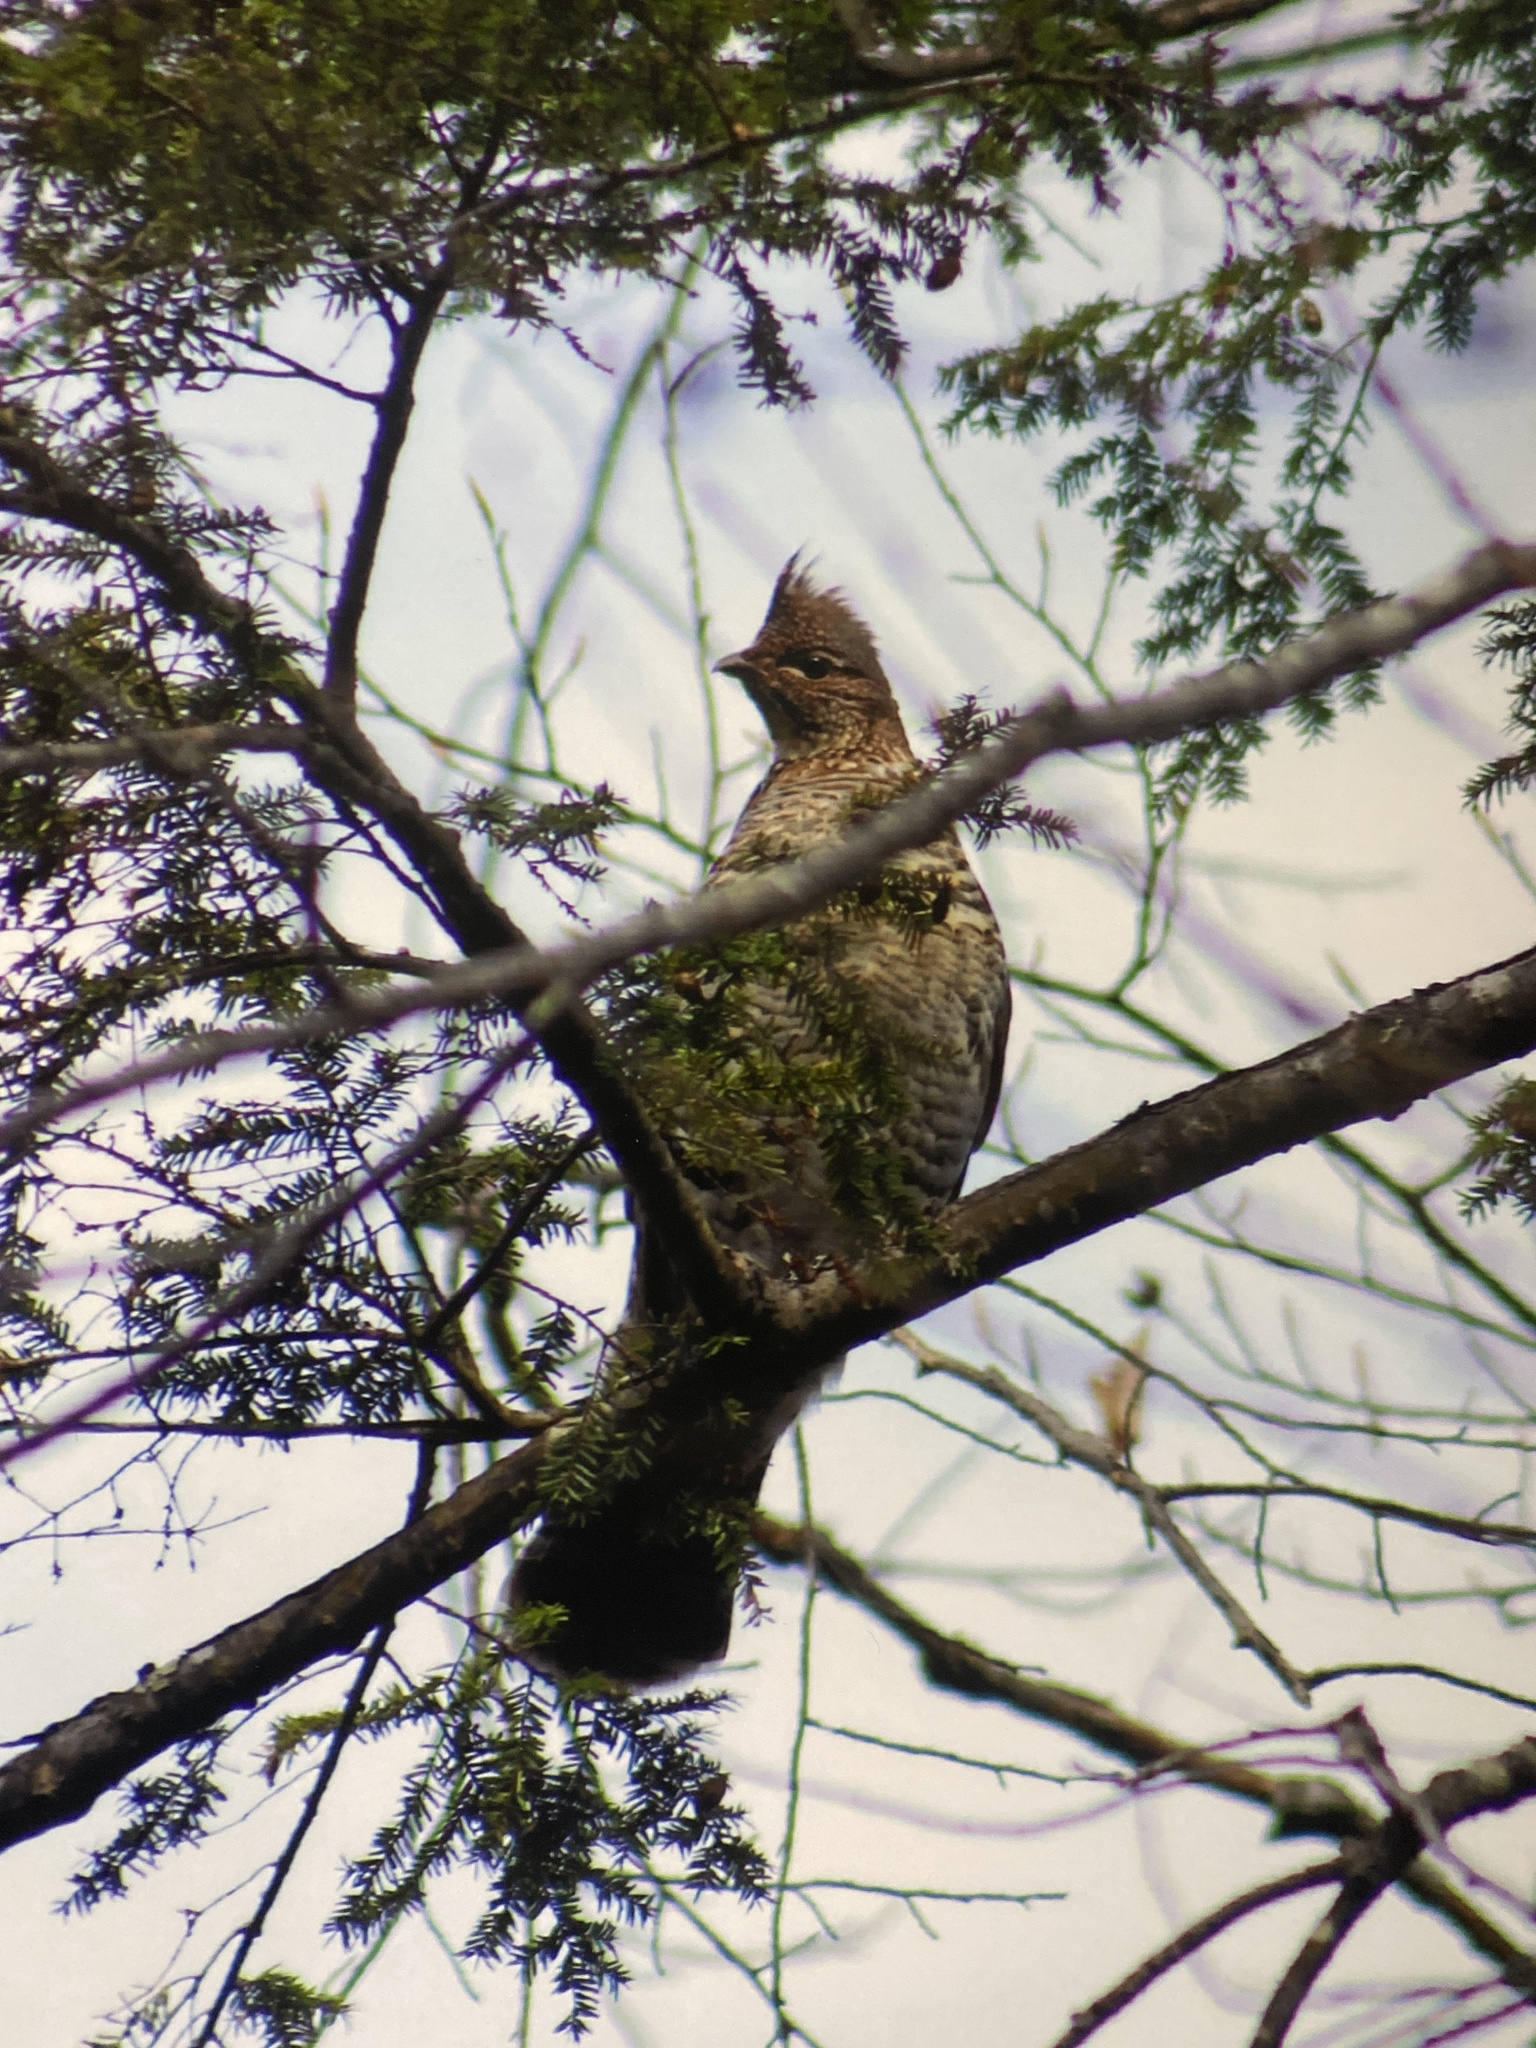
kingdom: Animalia
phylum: Chordata
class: Aves
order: Galliformes
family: Phasianidae
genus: Bonasa
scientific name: Bonasa umbellus
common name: Ruffed grouse
